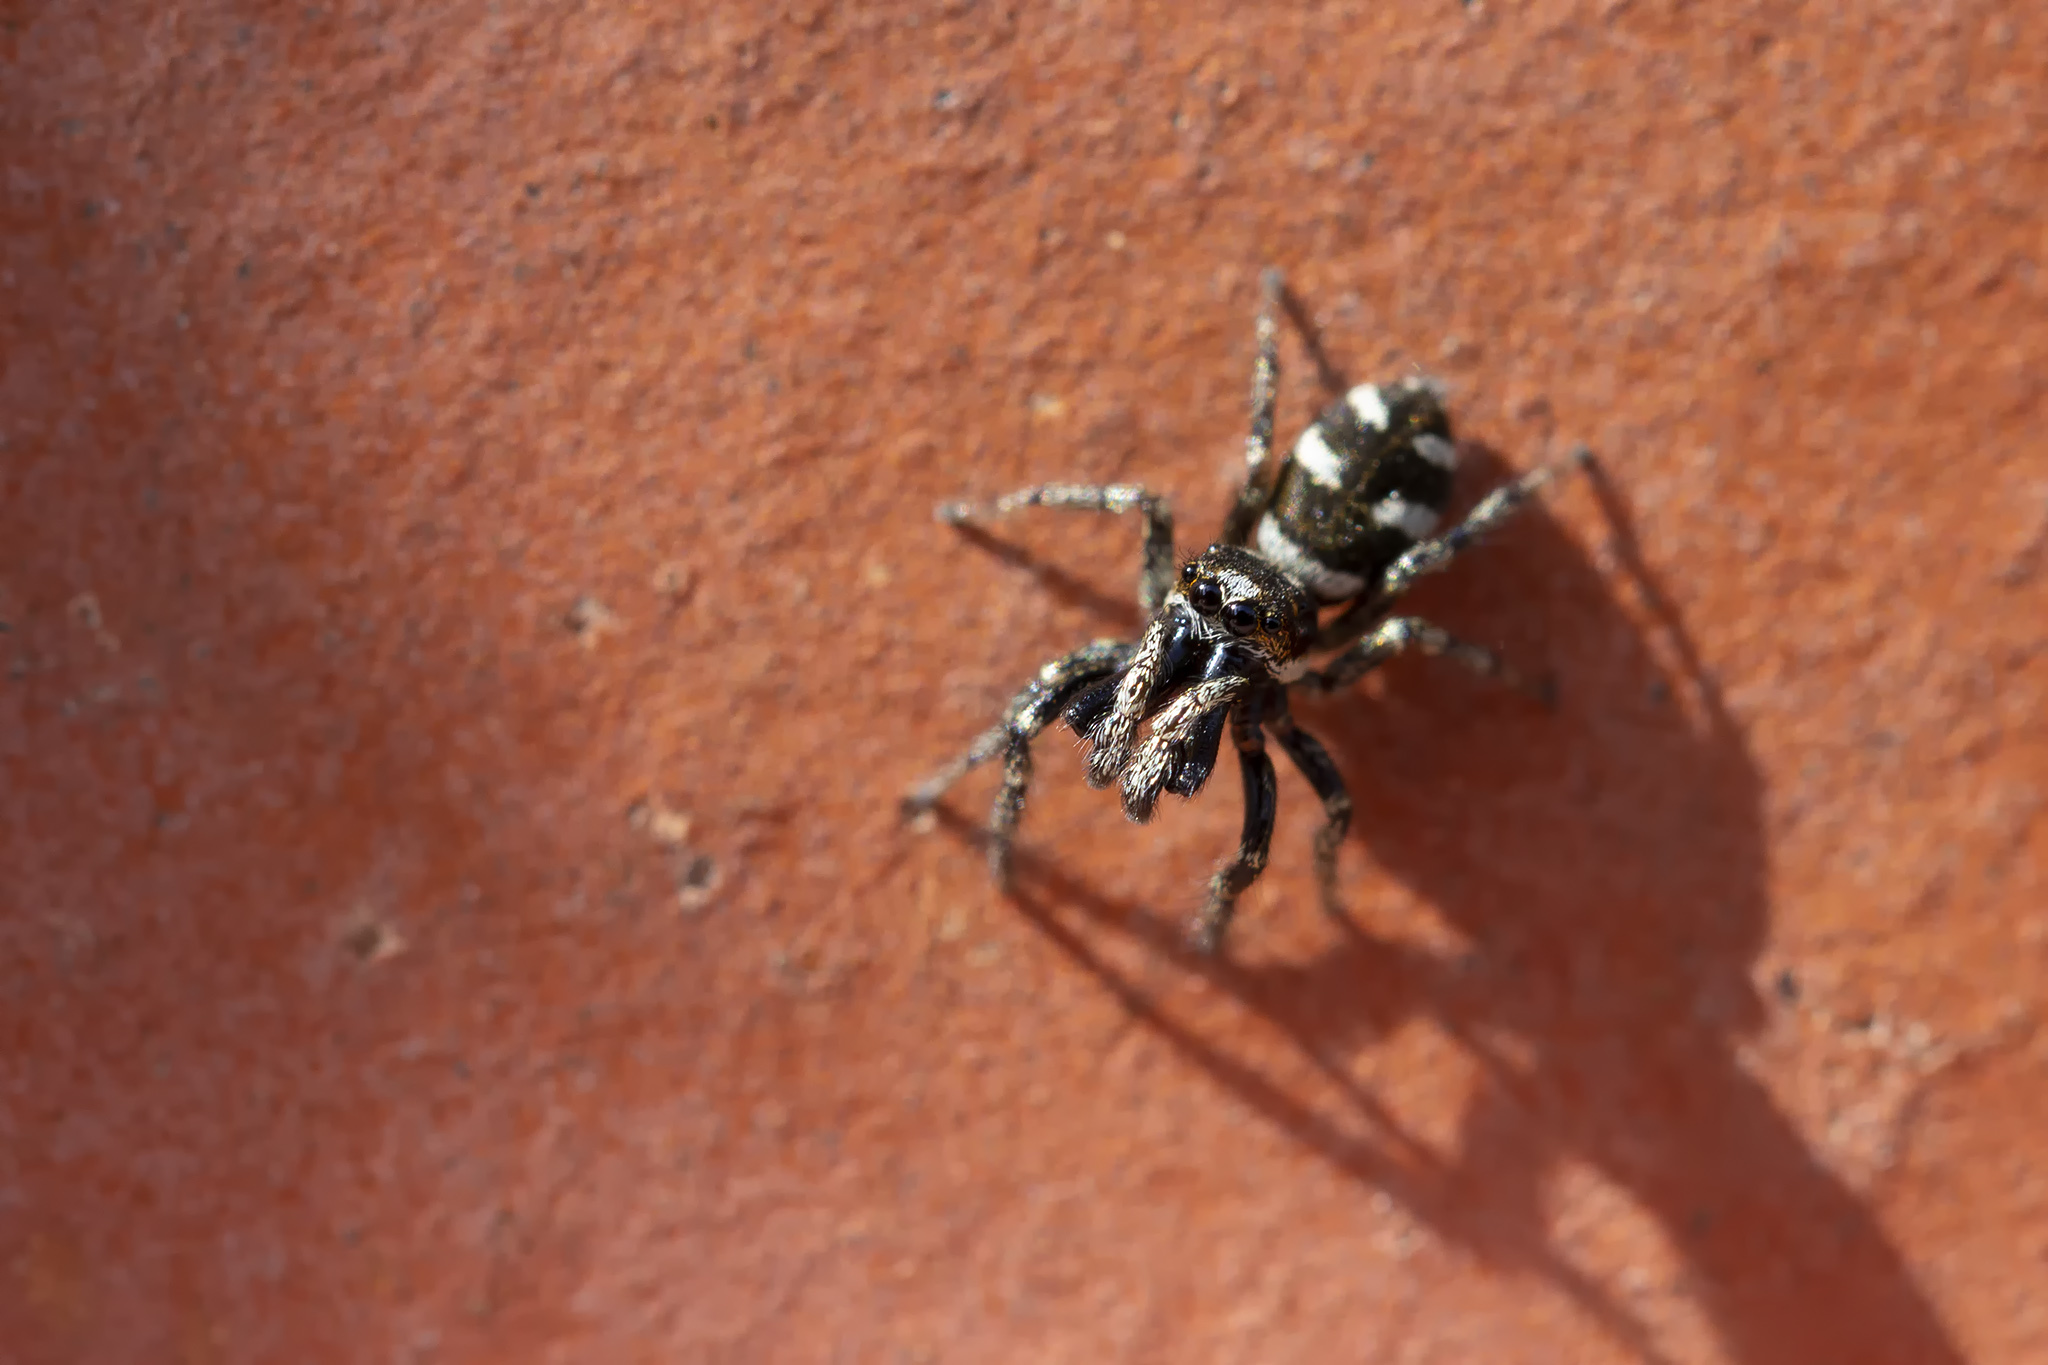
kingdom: Animalia
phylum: Arthropoda
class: Arachnida
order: Araneae
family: Salticidae
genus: Salticus
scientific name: Salticus scenicus
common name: Zebra jumper
